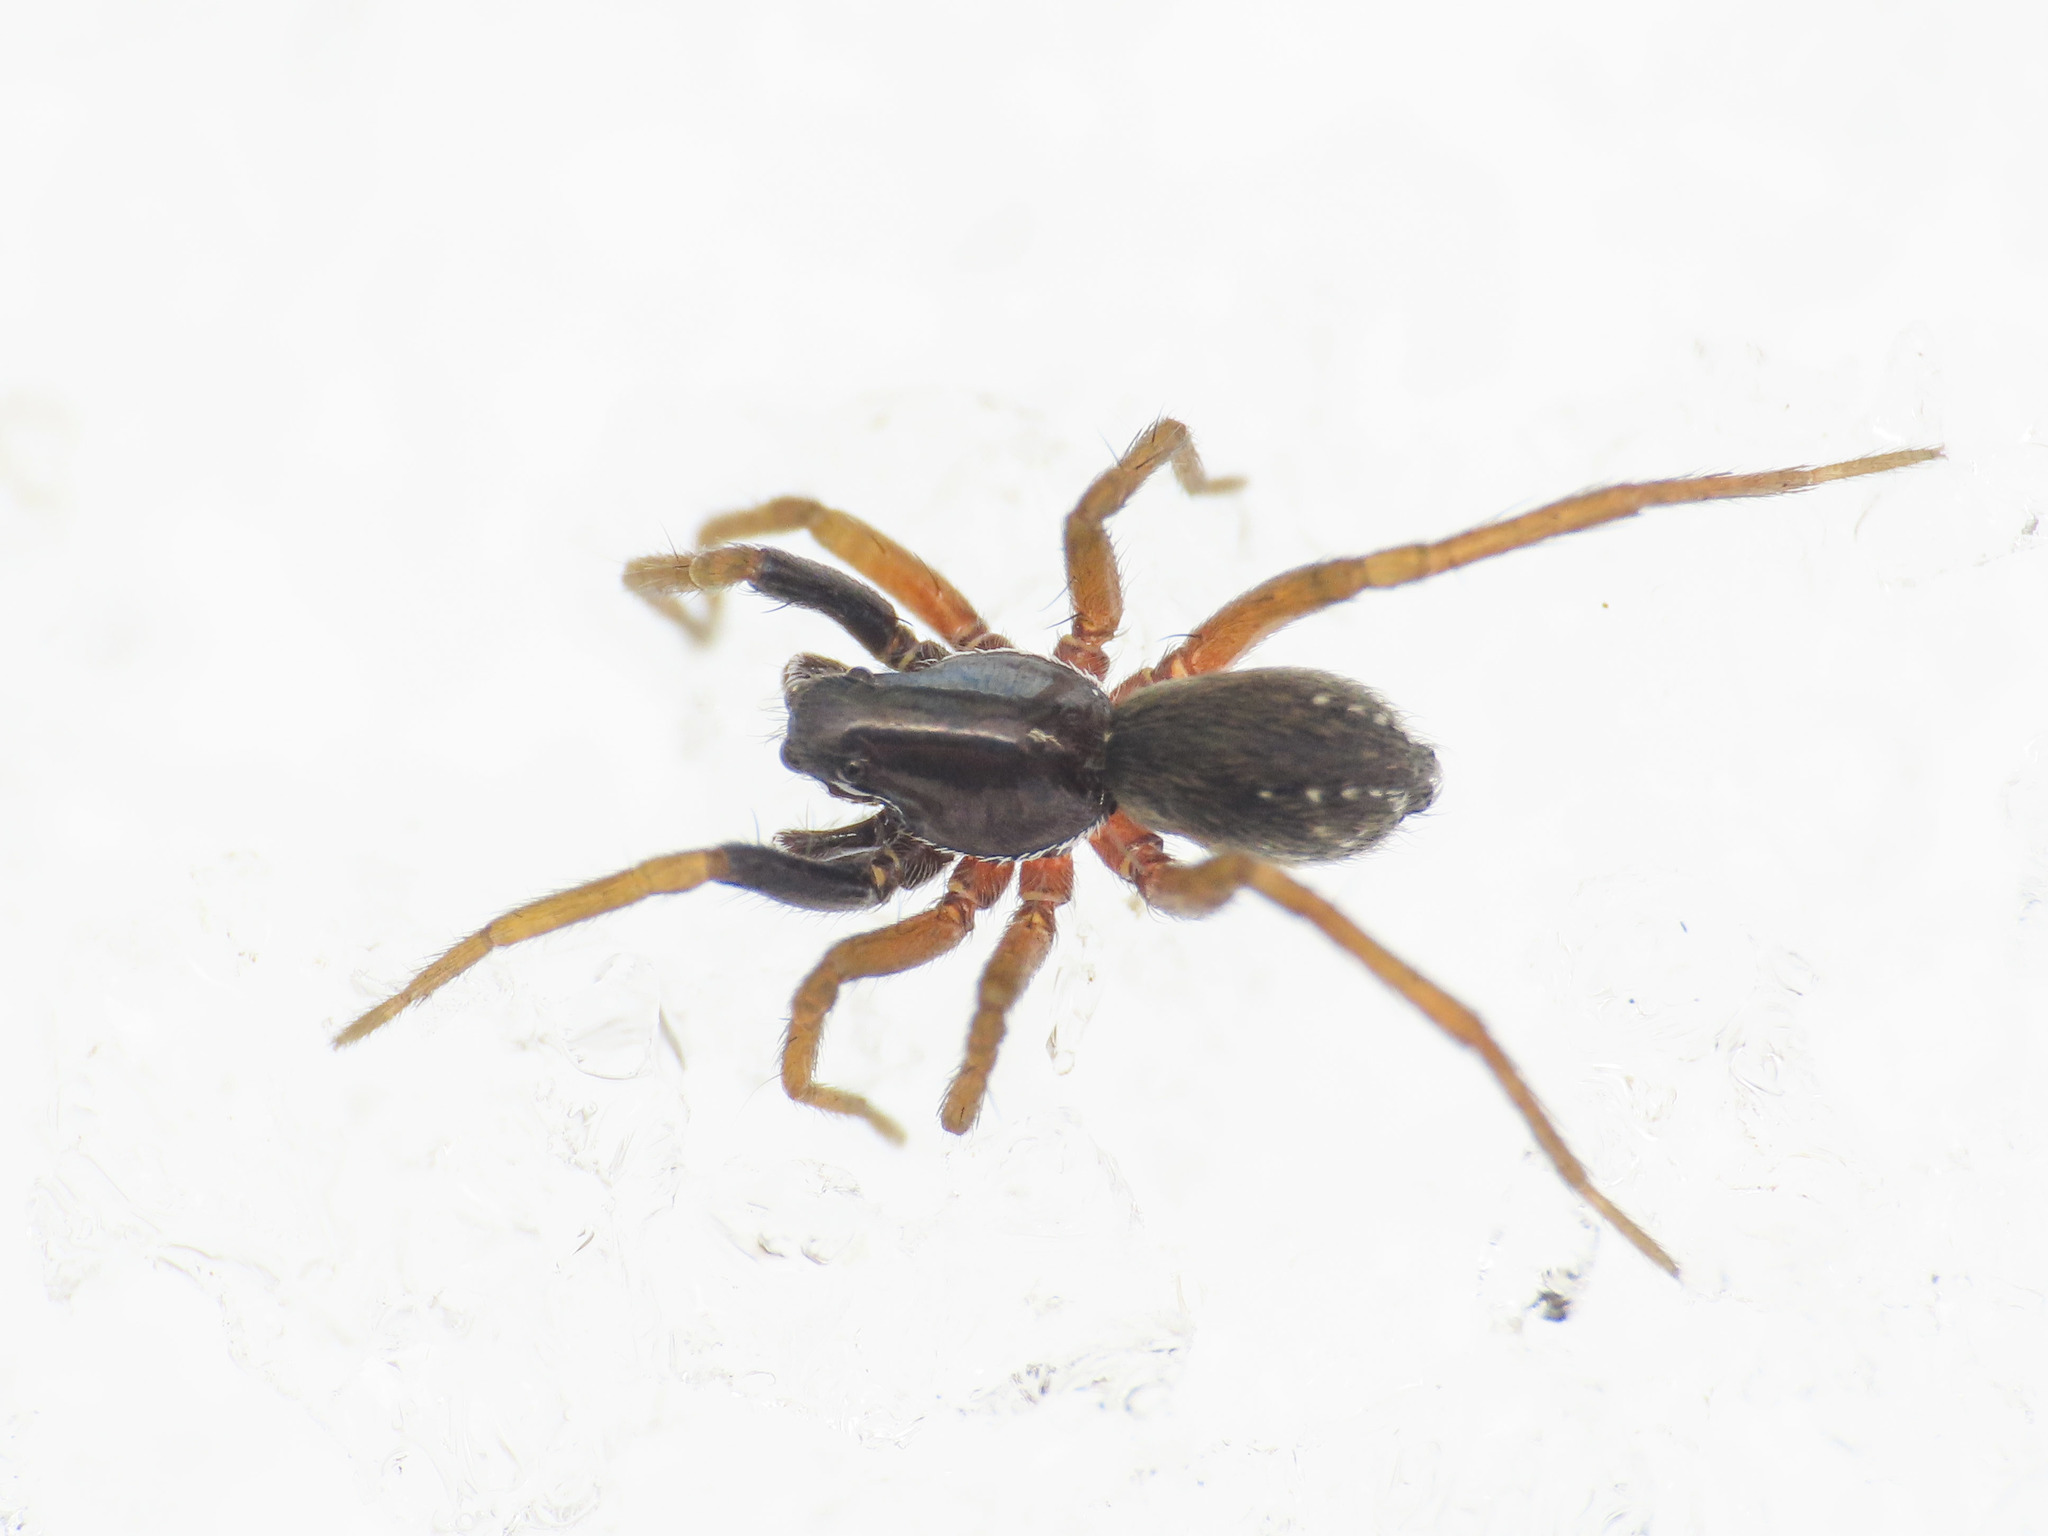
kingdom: Animalia
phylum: Arthropoda
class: Arachnida
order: Araneae
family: Lycosidae
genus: Aulonia
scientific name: Aulonia albimana
